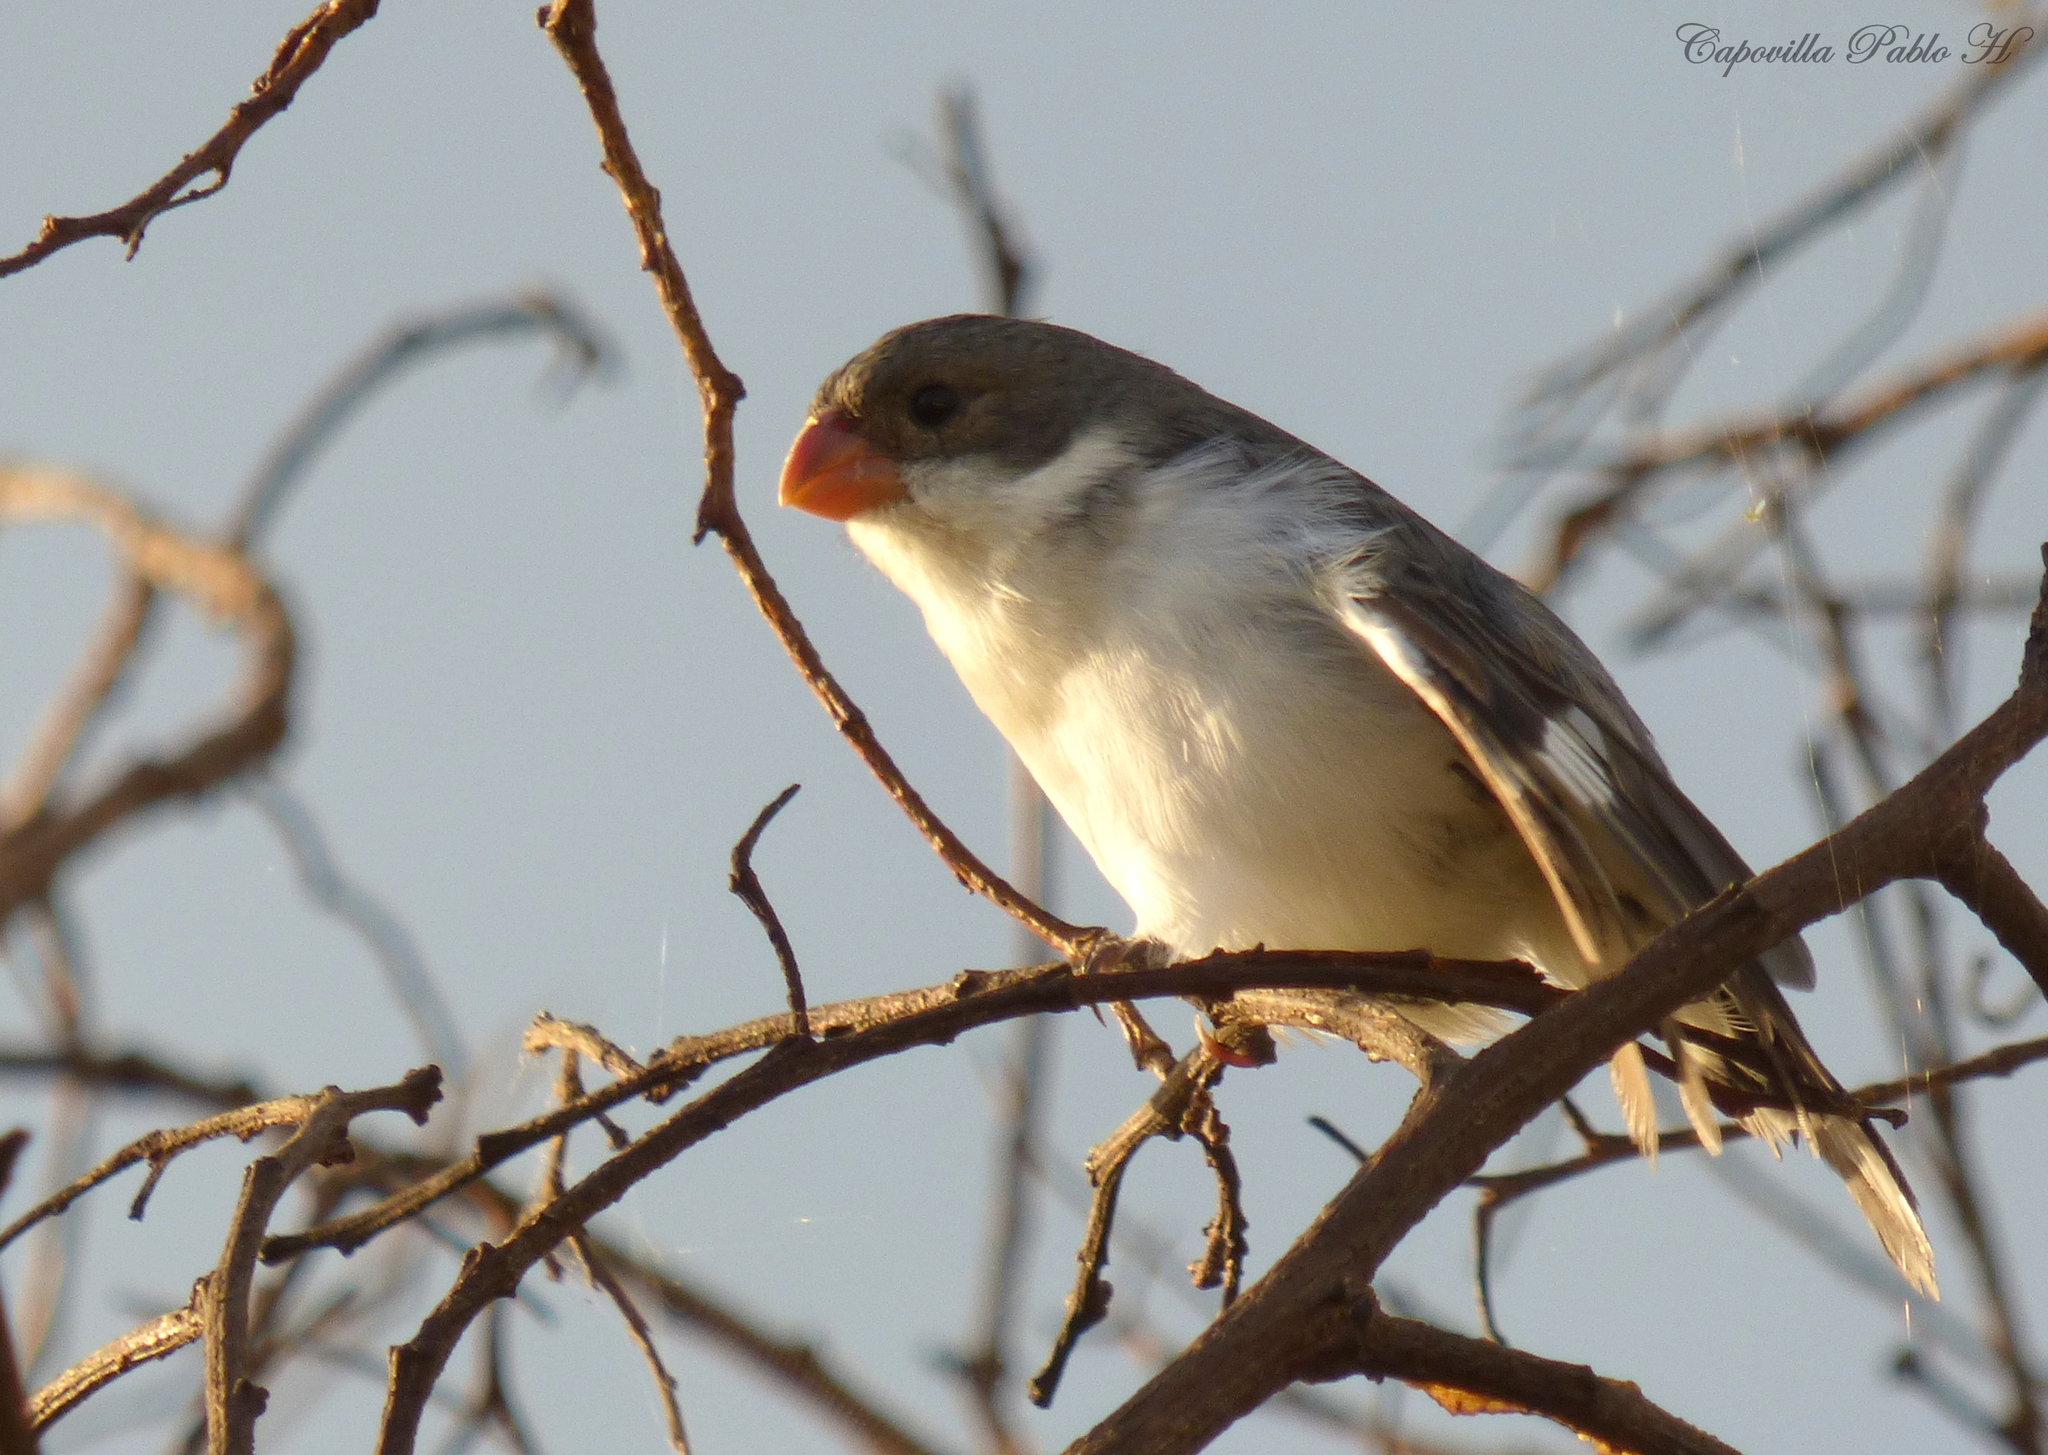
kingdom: Animalia
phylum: Chordata
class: Aves
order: Passeriformes
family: Thraupidae
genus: Sporophila
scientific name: Sporophila leucoptera
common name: White-bellied seedeater
